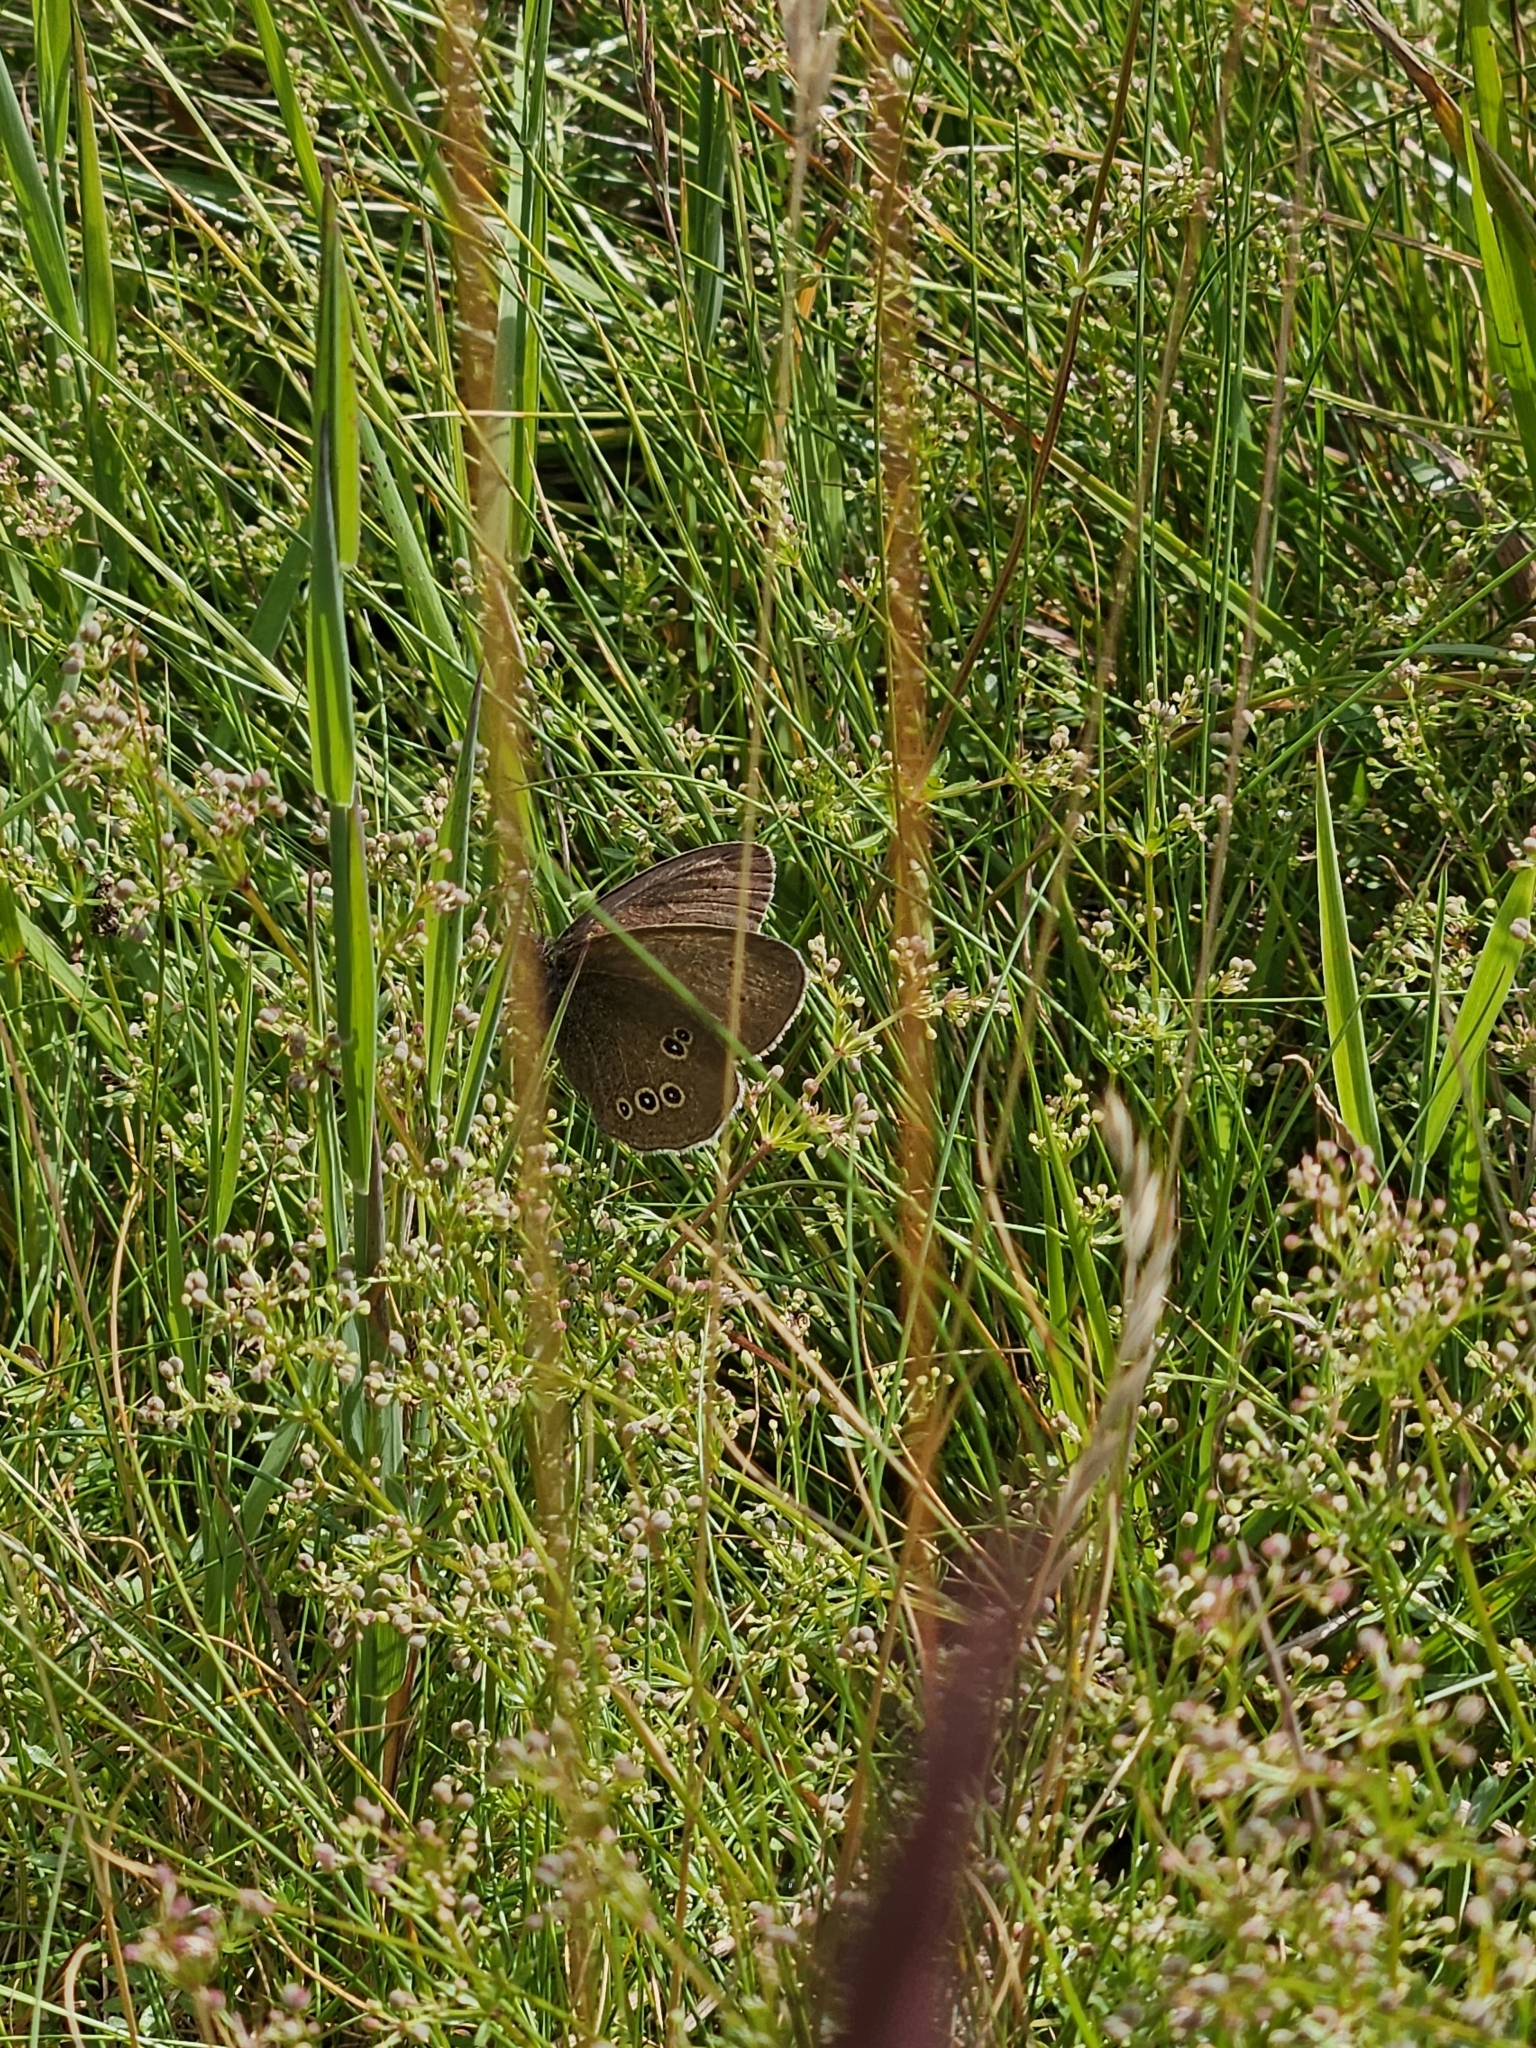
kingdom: Animalia
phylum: Arthropoda
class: Insecta
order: Lepidoptera
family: Nymphalidae
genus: Aphantopus
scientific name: Aphantopus hyperantus
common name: Ringlet
